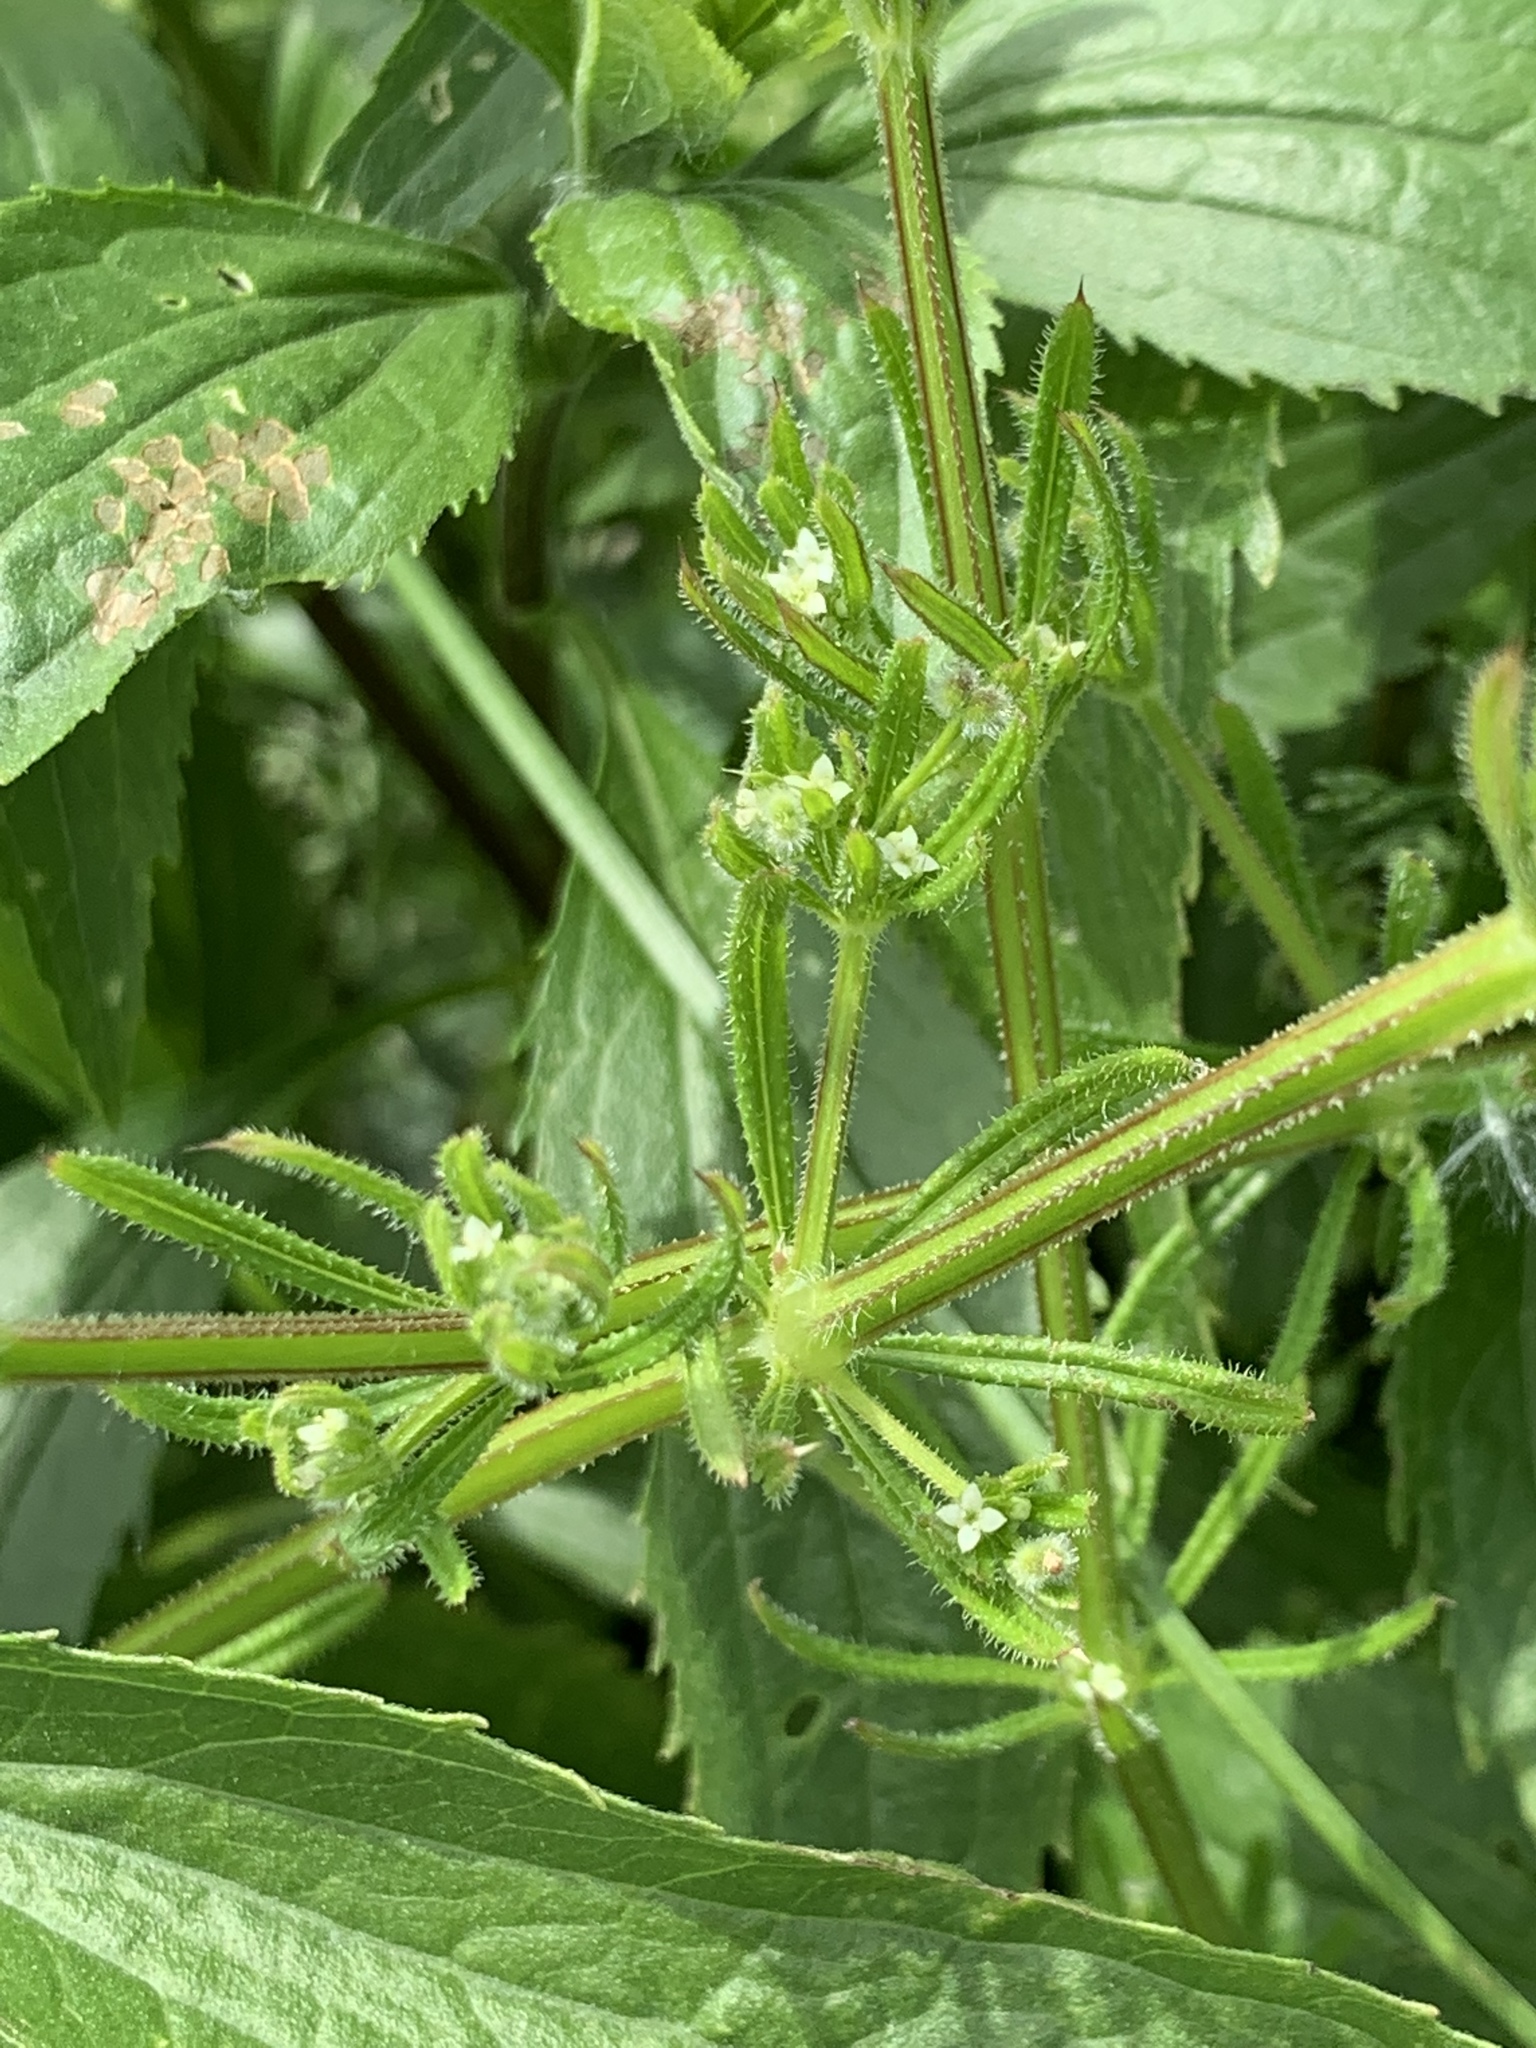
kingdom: Plantae
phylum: Tracheophyta
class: Magnoliopsida
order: Gentianales
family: Rubiaceae
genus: Galium
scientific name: Galium aparine
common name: Cleavers
